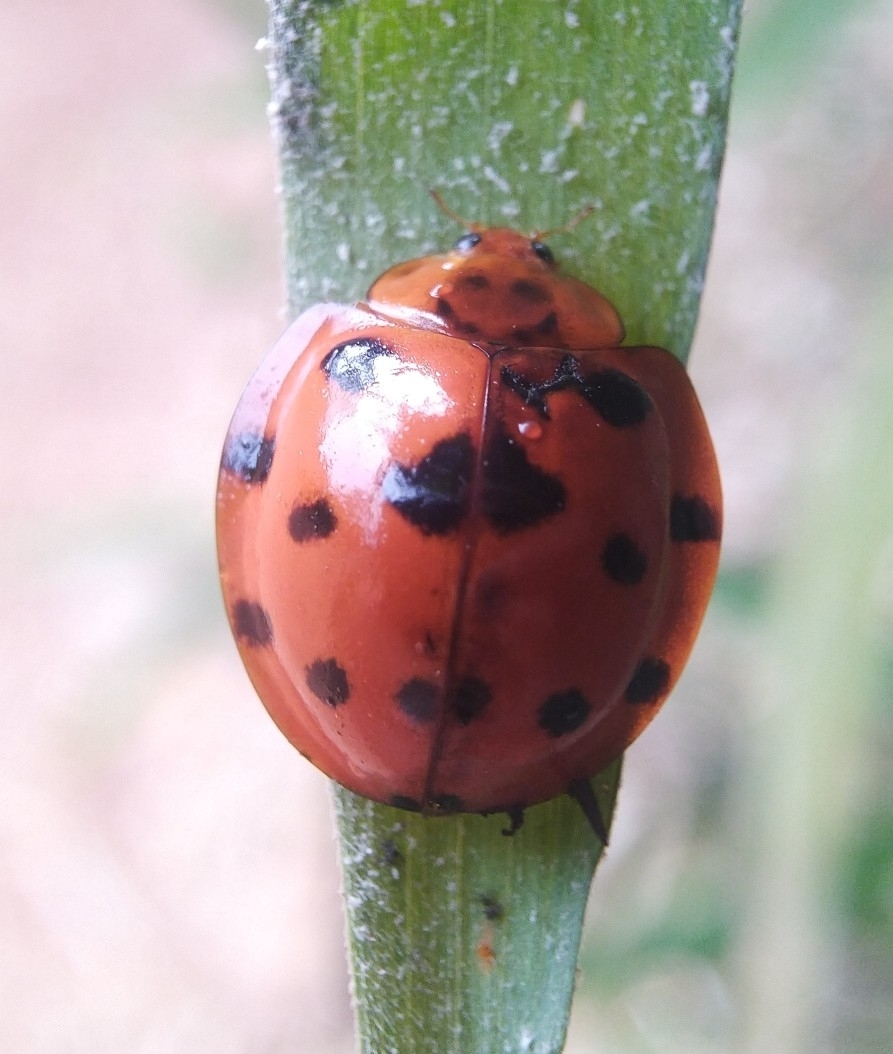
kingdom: Animalia
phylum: Arthropoda
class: Insecta
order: Coleoptera
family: Coccinellidae
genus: Synonycha
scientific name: Synonycha grandis
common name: Lady beetle
